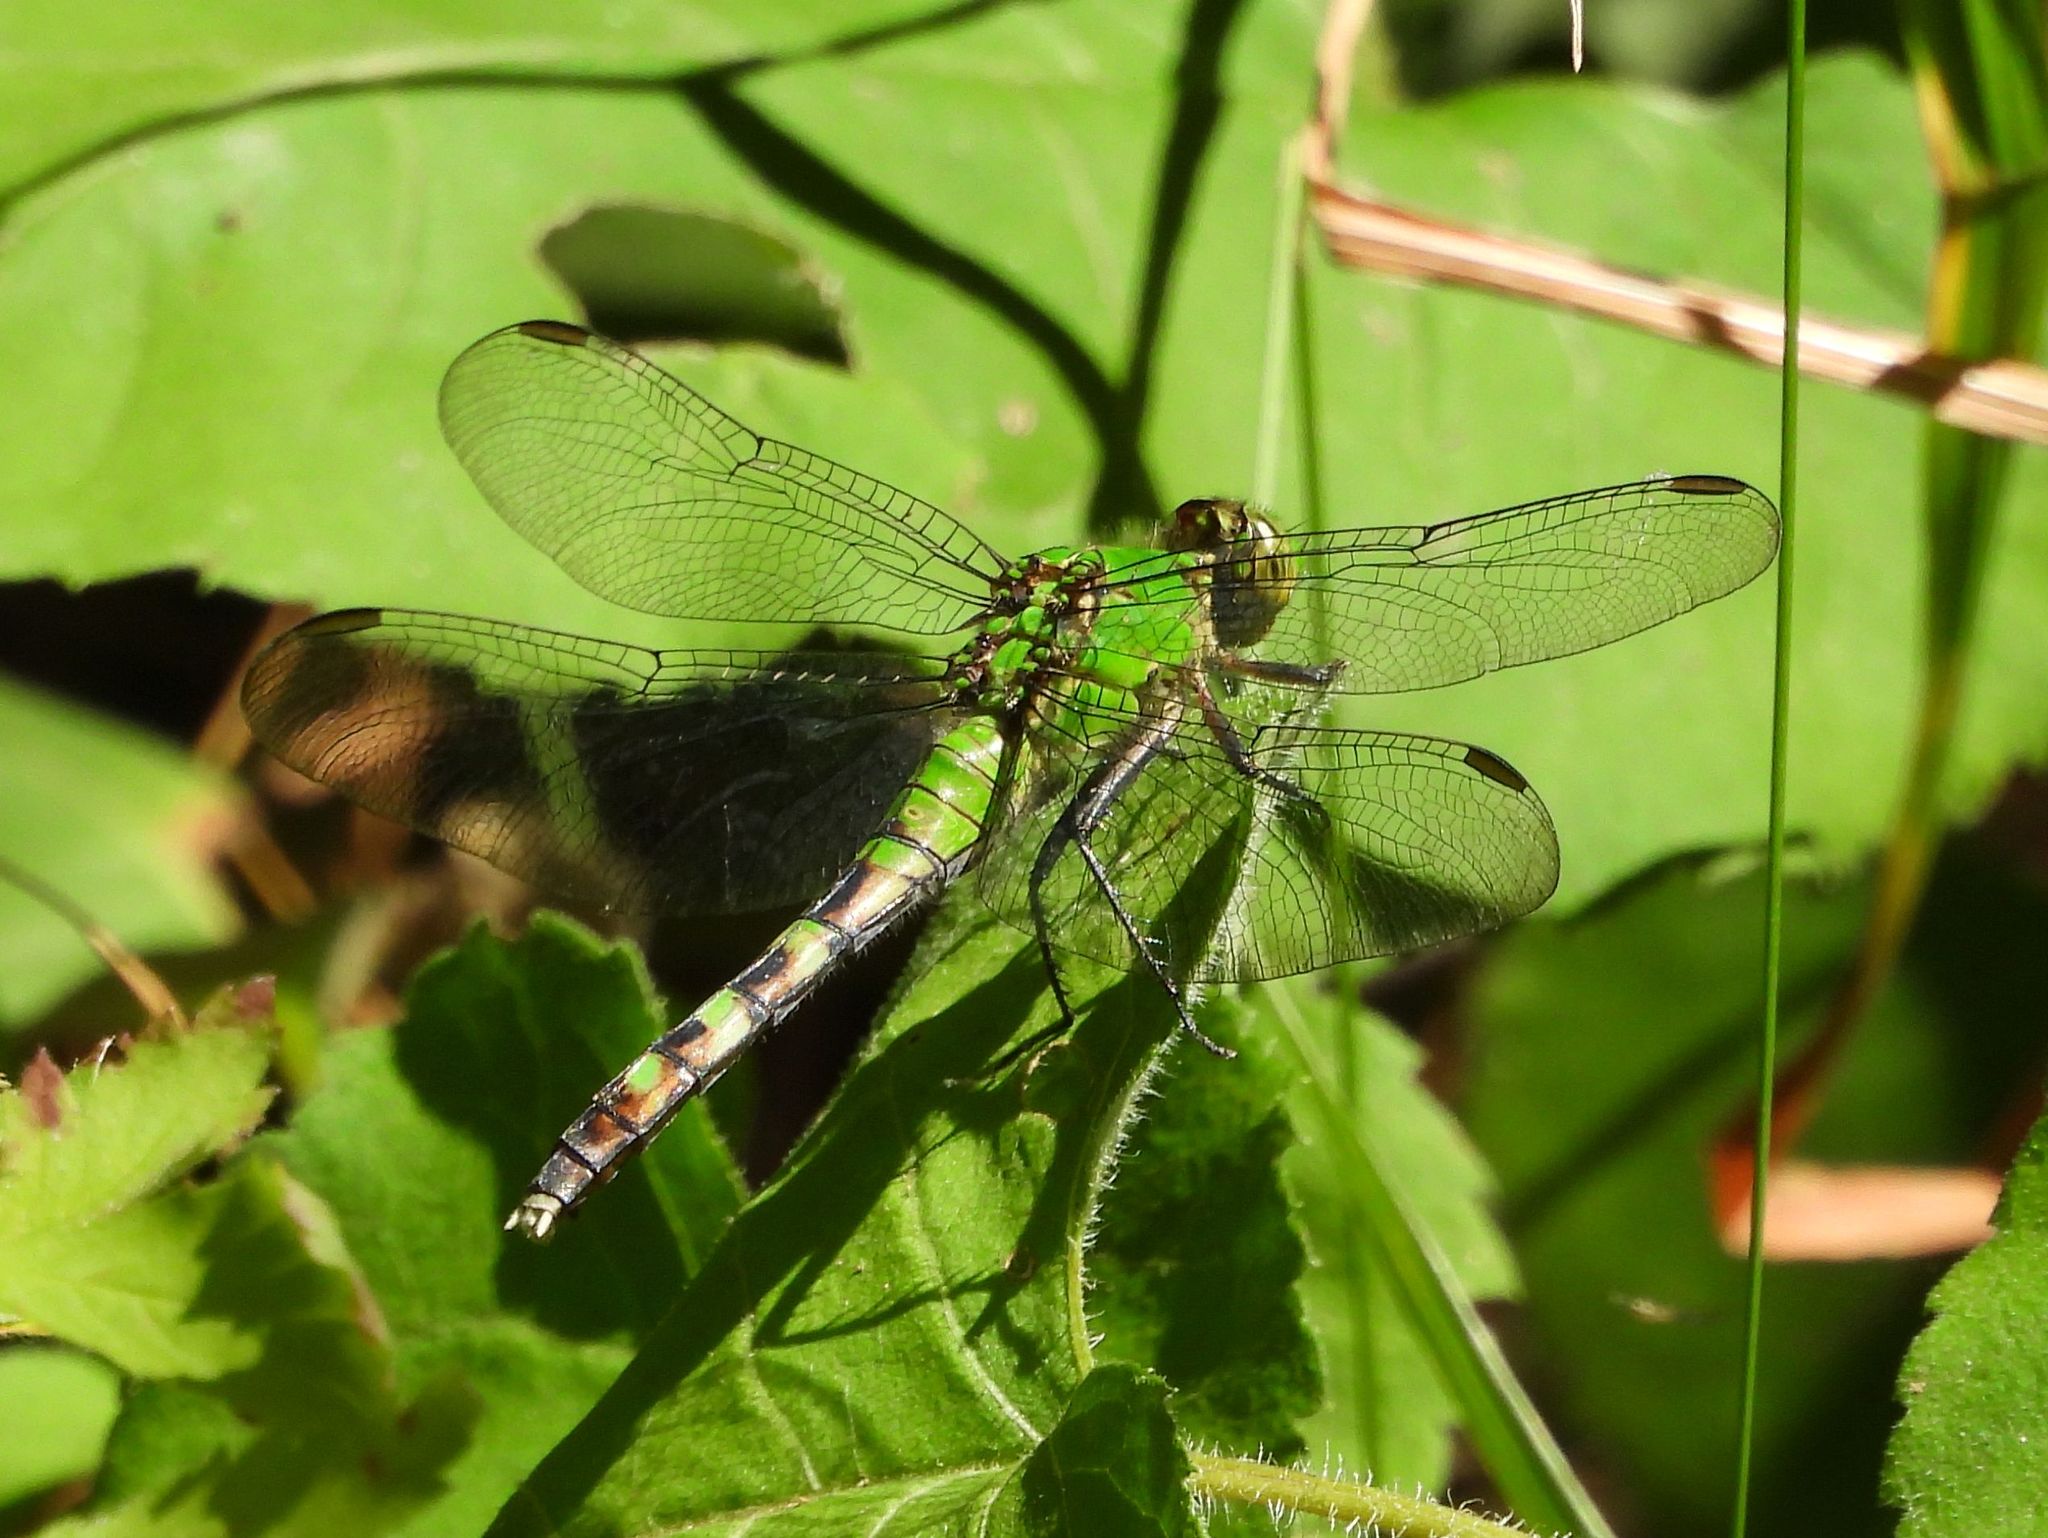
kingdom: Animalia
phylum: Arthropoda
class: Insecta
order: Odonata
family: Libellulidae
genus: Erythemis
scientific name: Erythemis simplicicollis
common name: Eastern pondhawk
